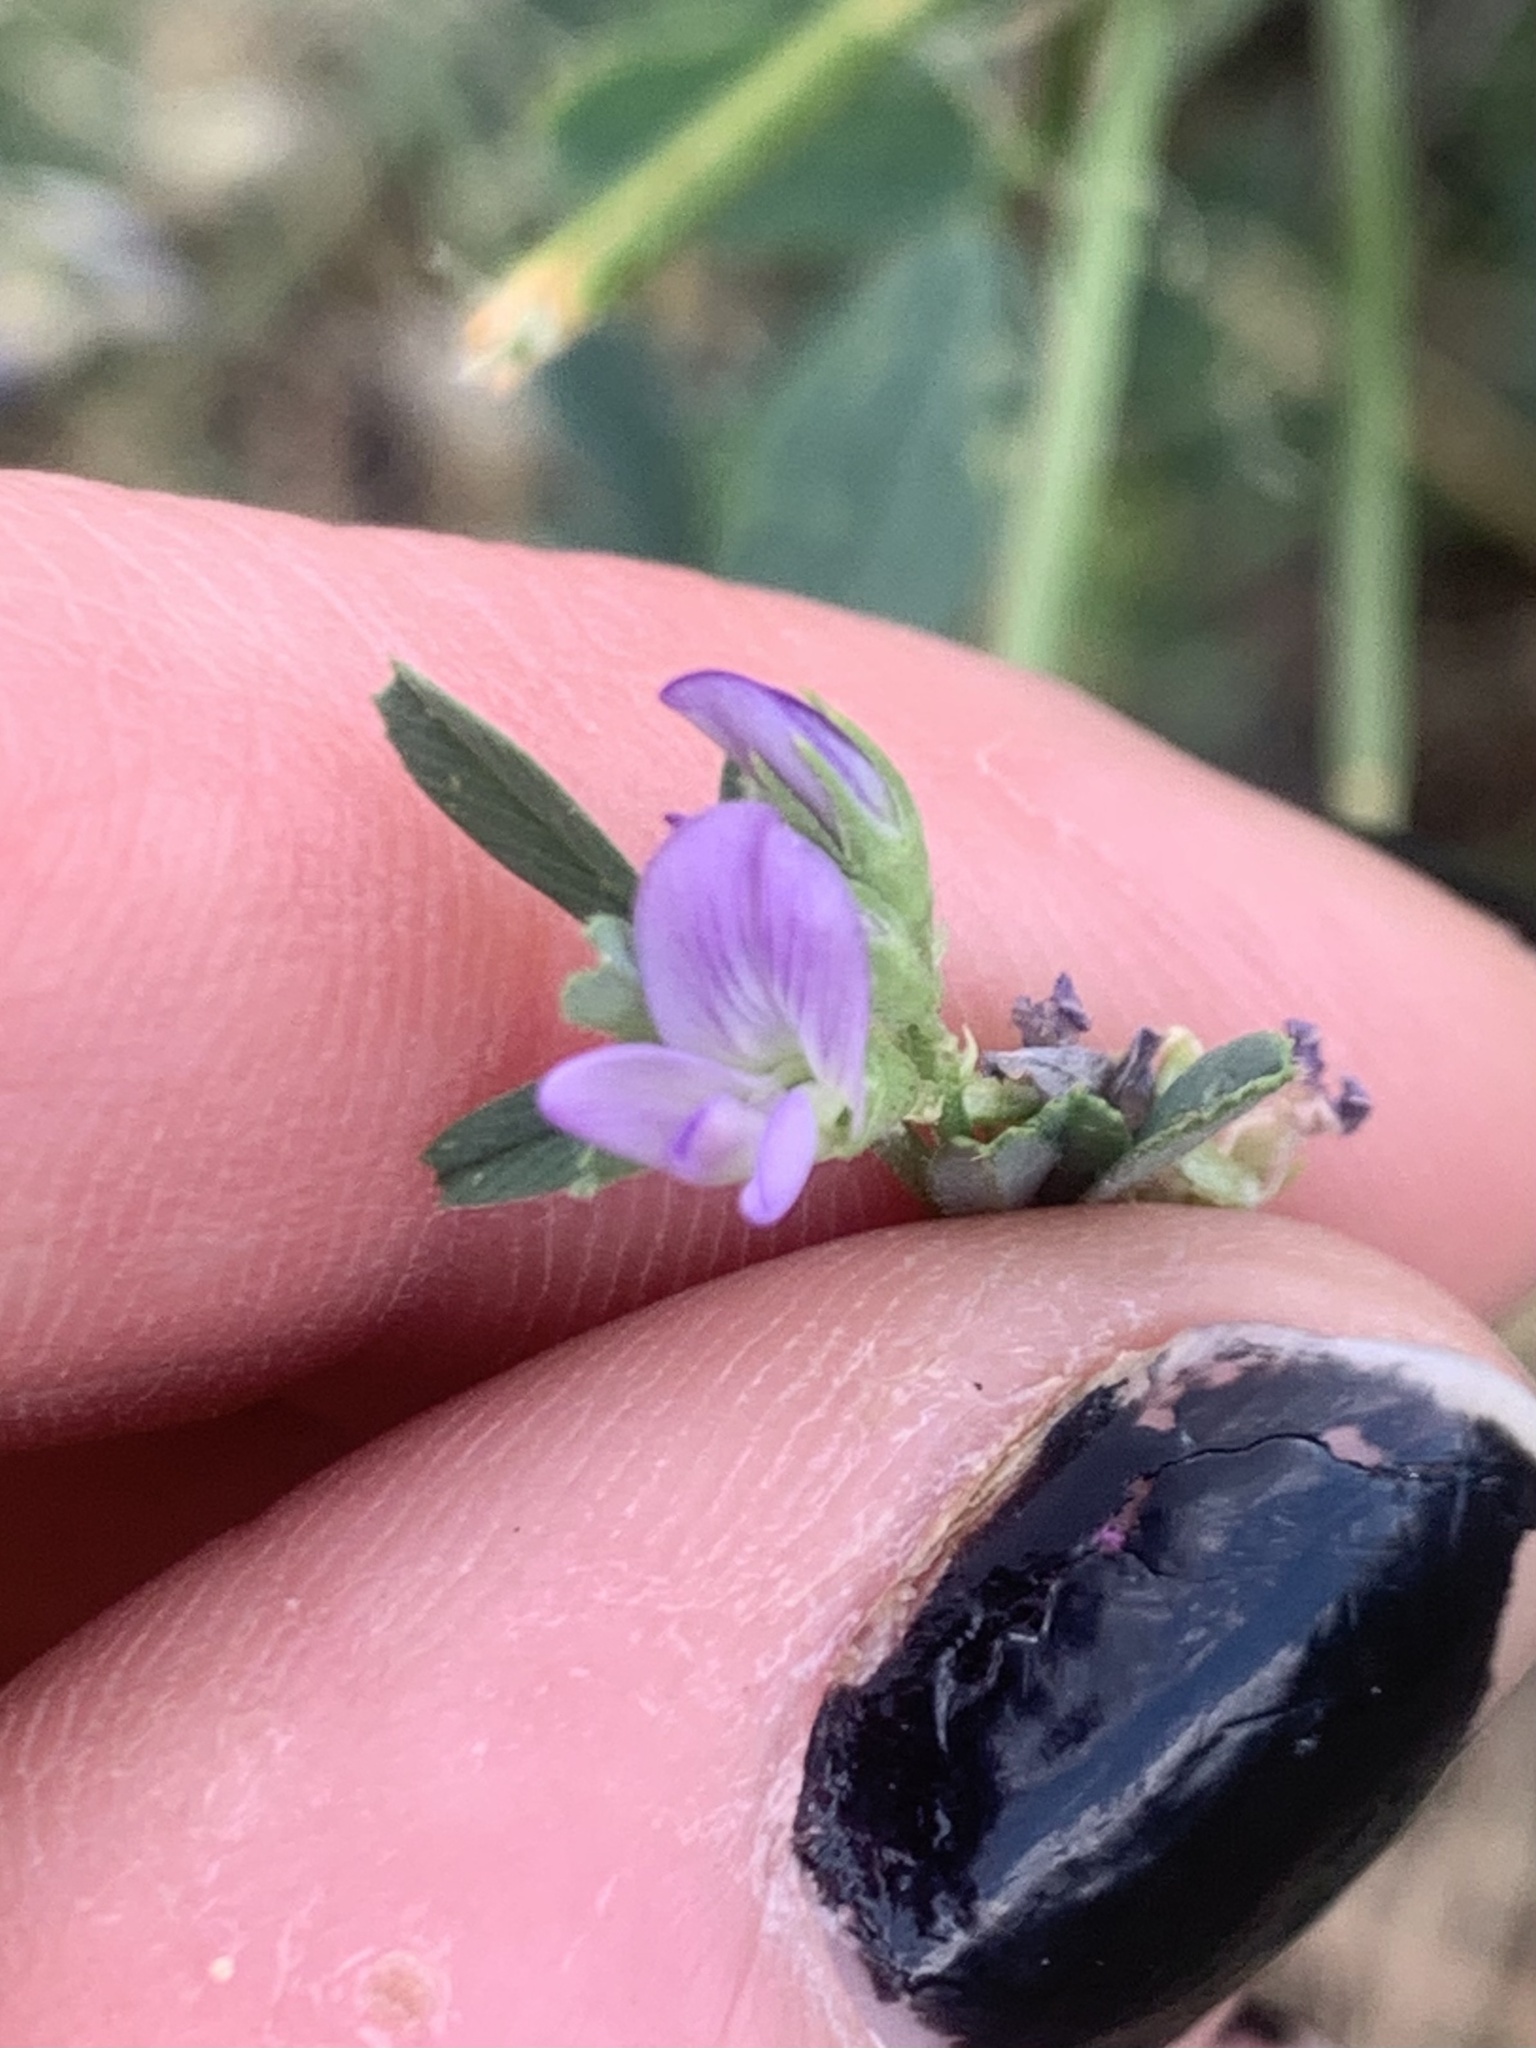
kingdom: Plantae
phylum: Tracheophyta
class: Magnoliopsida
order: Fabales
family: Fabaceae
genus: Medicago
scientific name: Medicago sativa
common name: Alfalfa
